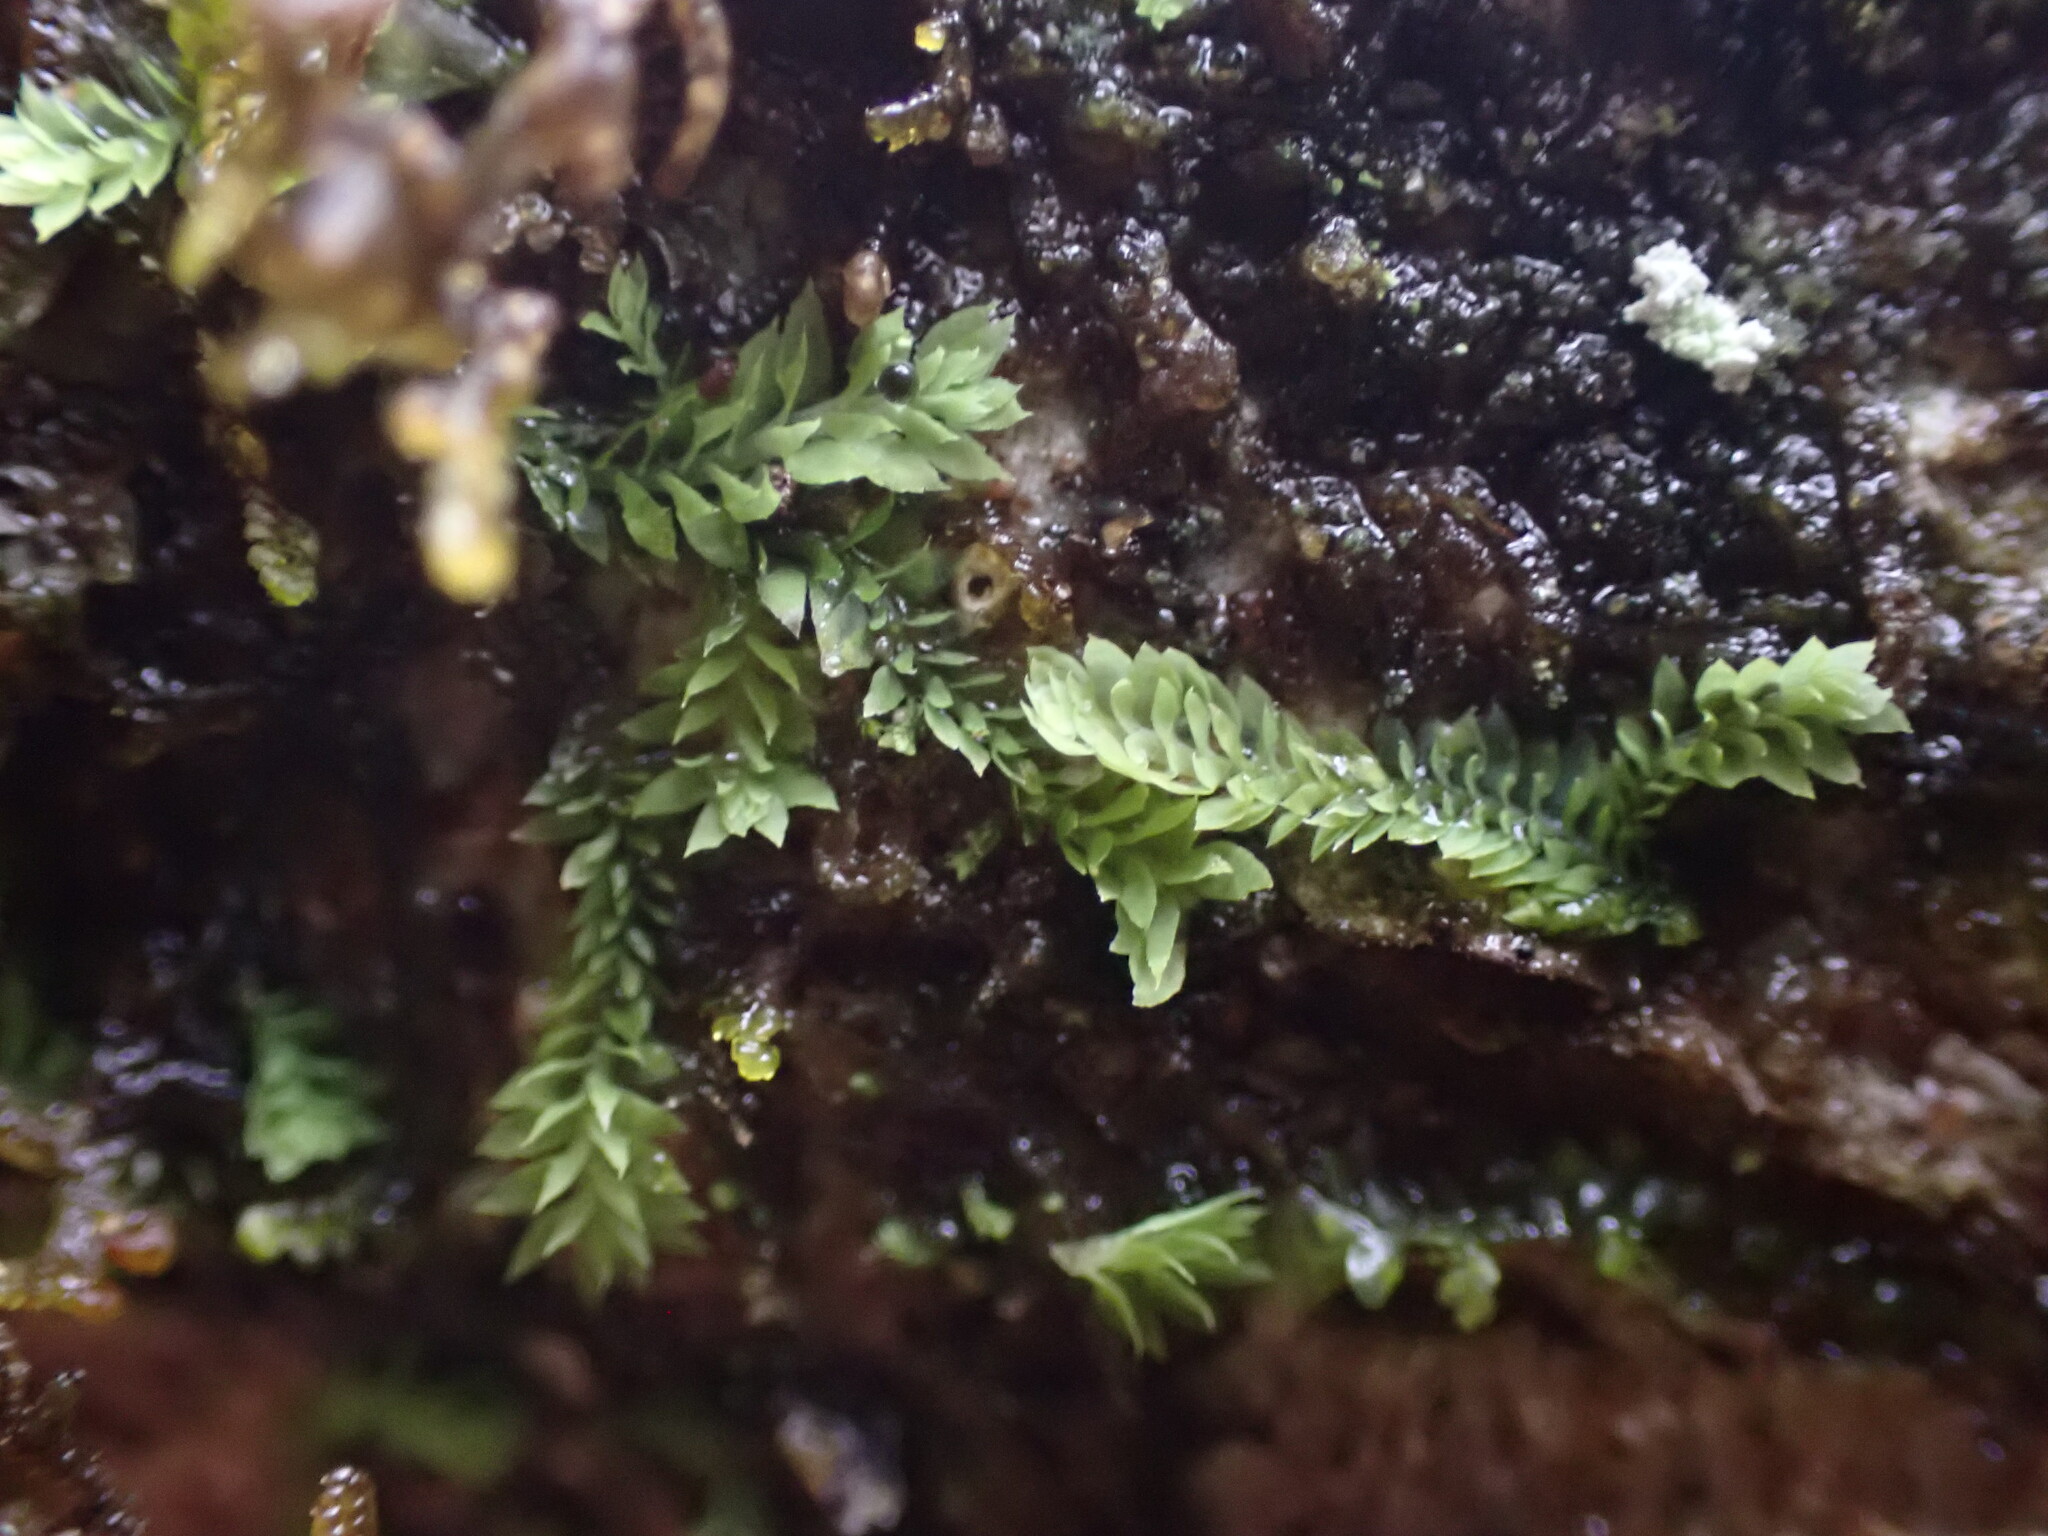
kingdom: Plantae
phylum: Marchantiophyta
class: Jungermanniopsida
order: Jungermanniales
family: Scapaniaceae
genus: Douinia
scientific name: Douinia ovata
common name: Waxy earwort
